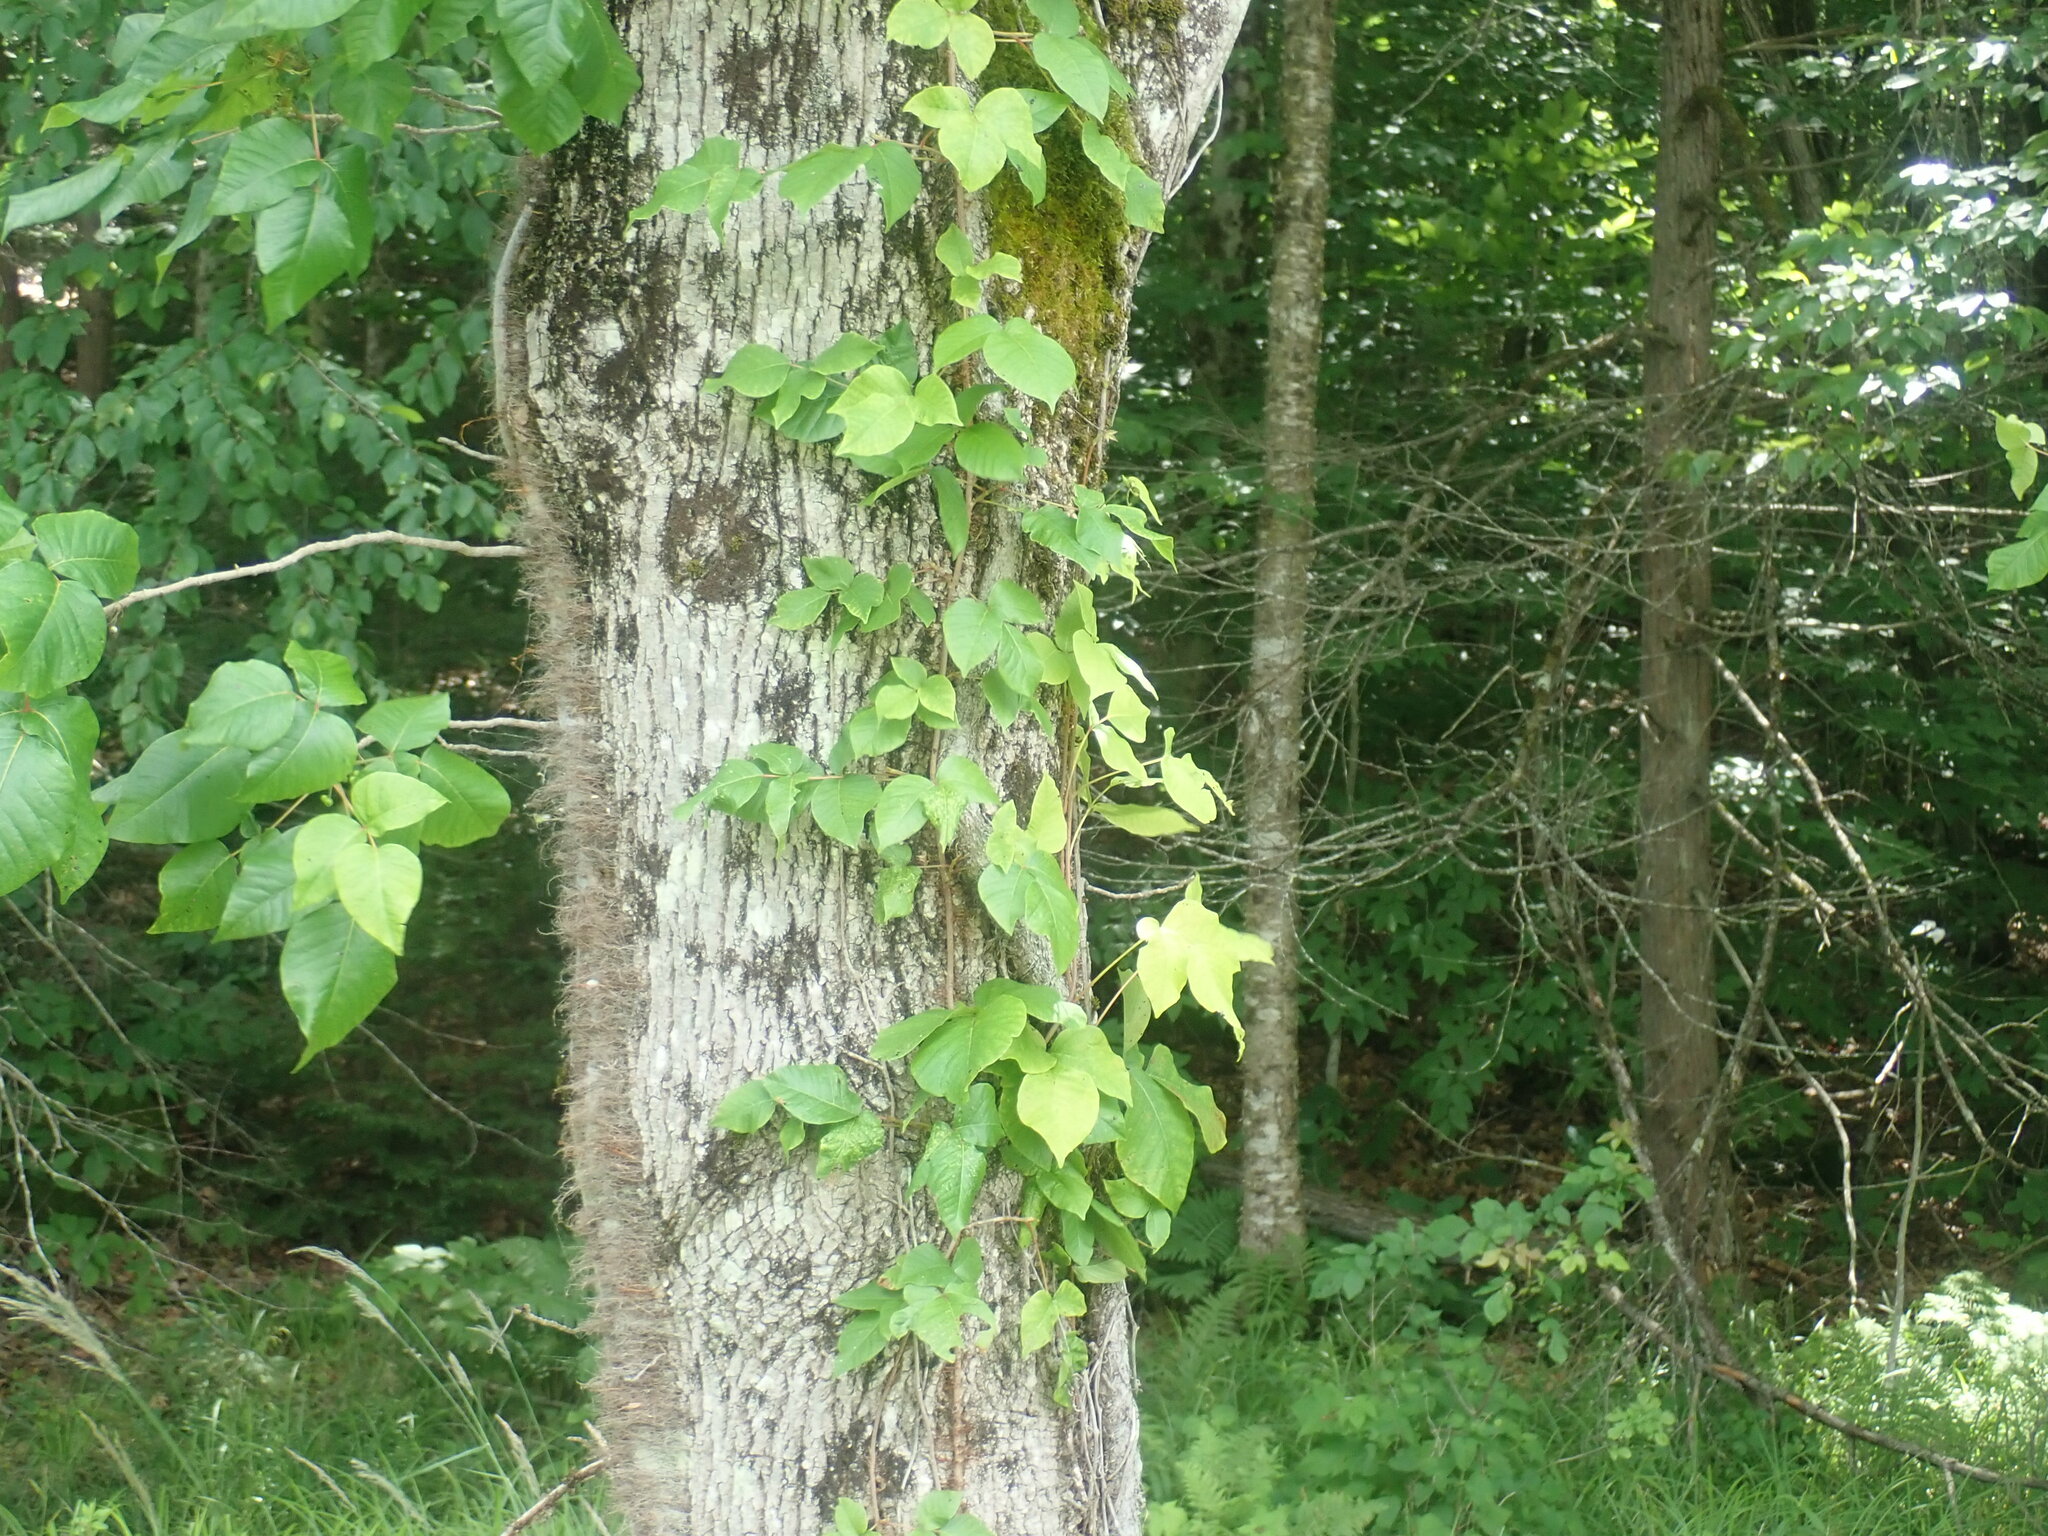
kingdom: Plantae
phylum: Tracheophyta
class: Magnoliopsida
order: Sapindales
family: Anacardiaceae
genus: Toxicodendron
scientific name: Toxicodendron radicans
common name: Poison ivy
